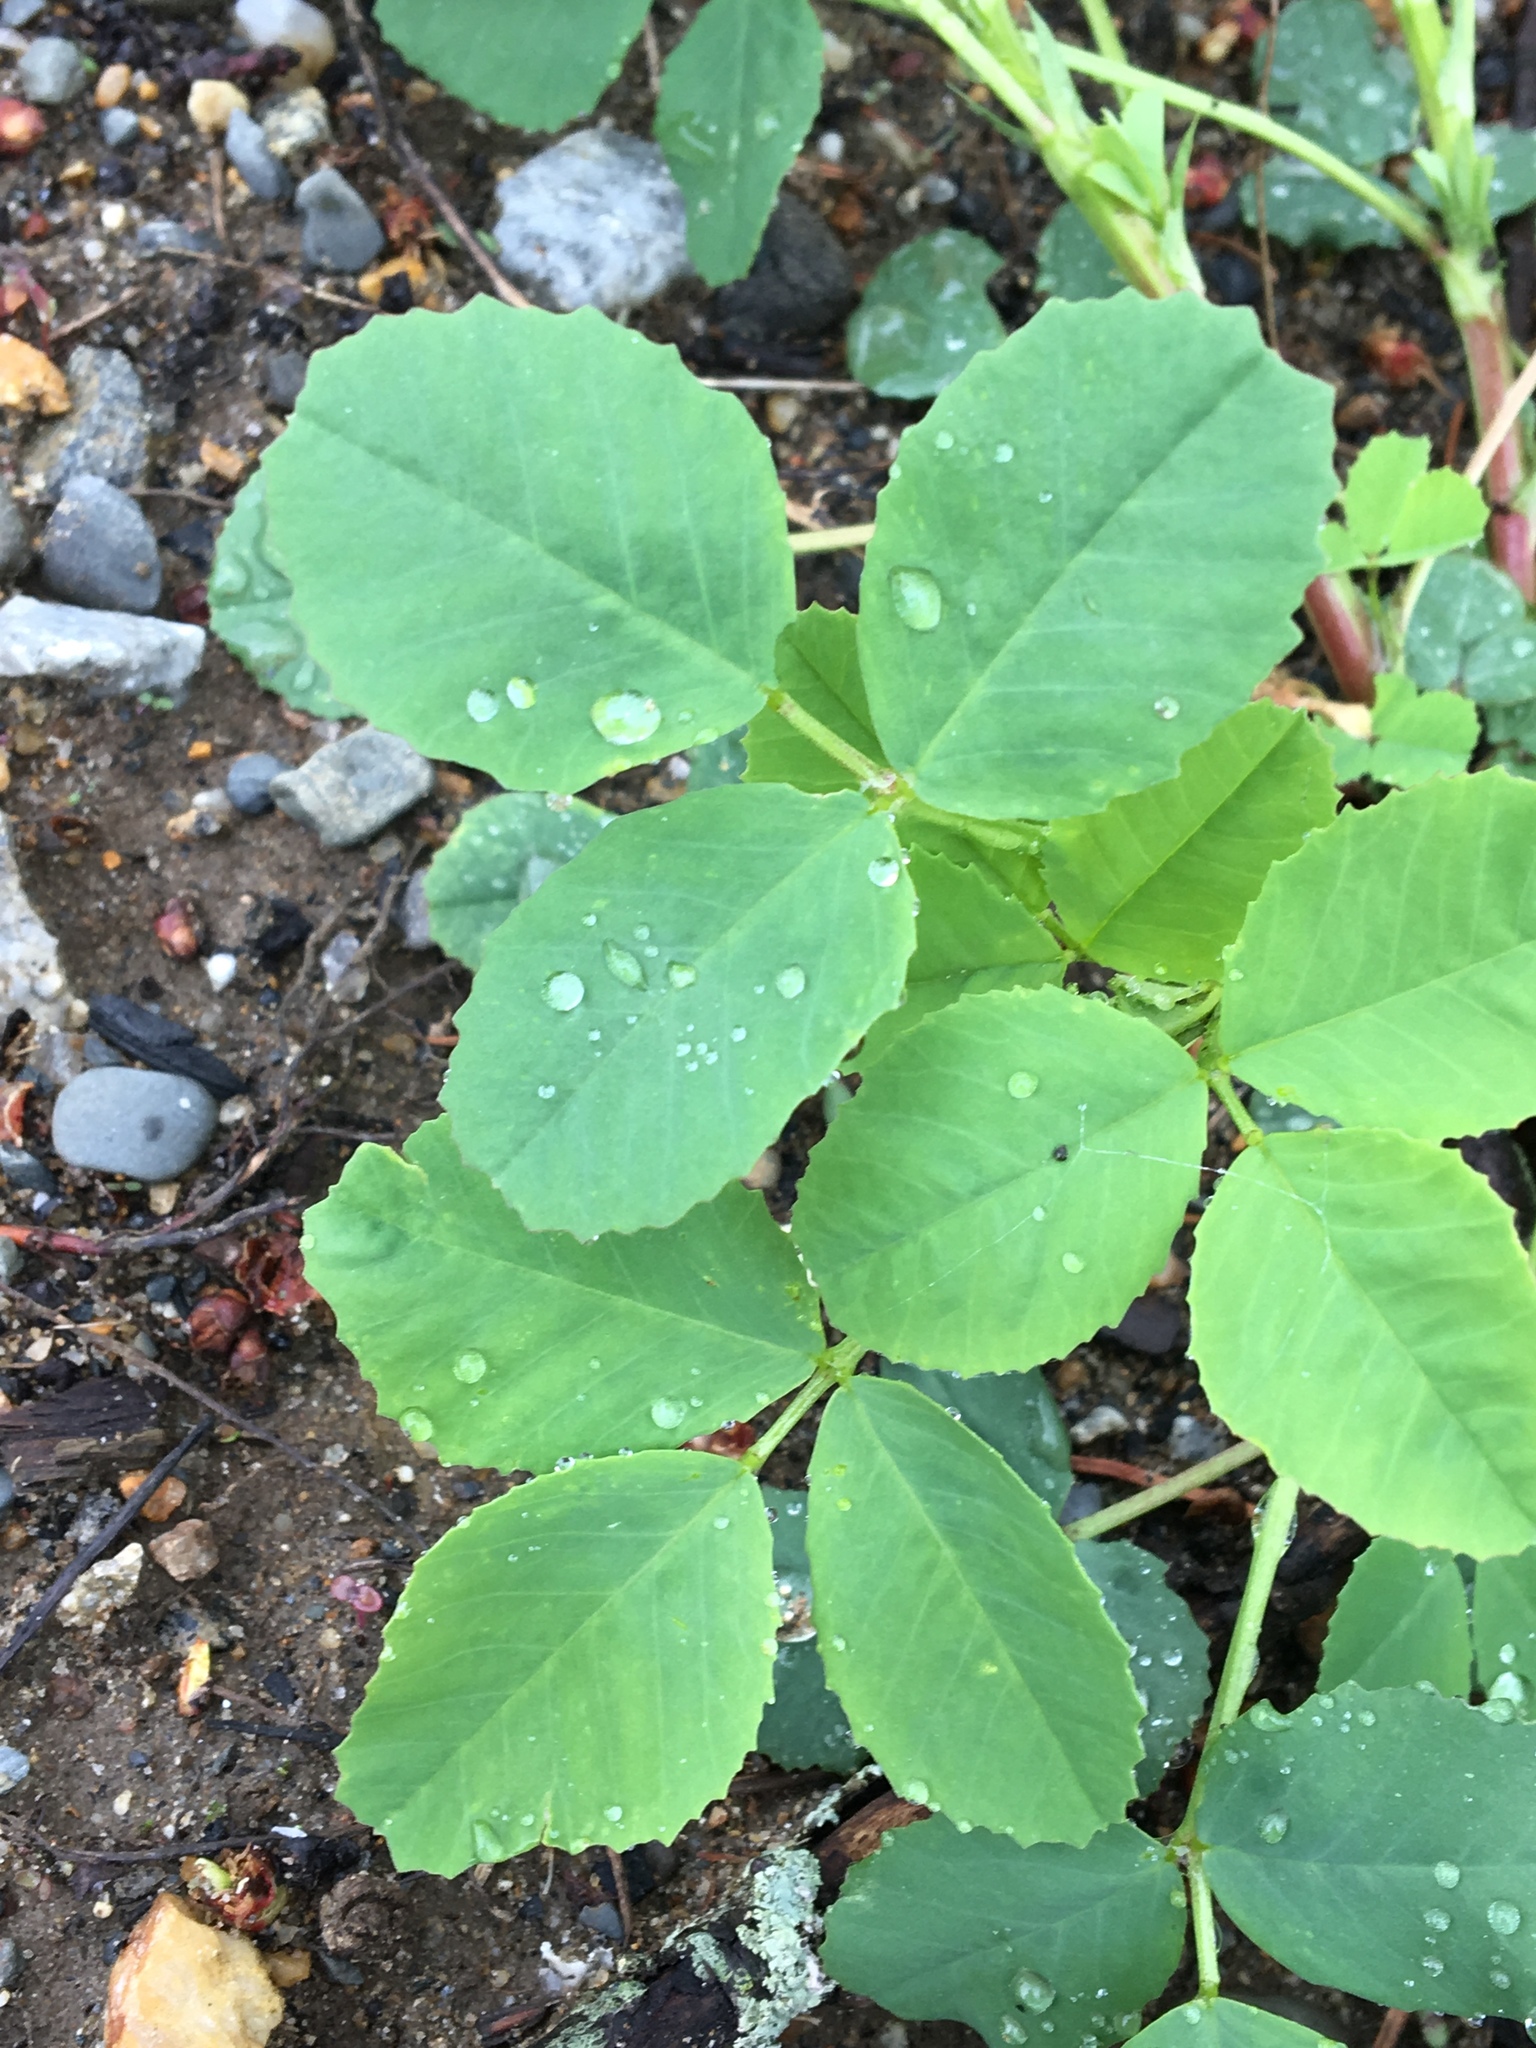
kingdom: Plantae
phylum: Tracheophyta
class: Magnoliopsida
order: Ericales
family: Balsaminaceae
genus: Impatiens
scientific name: Impatiens capensis
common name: Orange balsam
